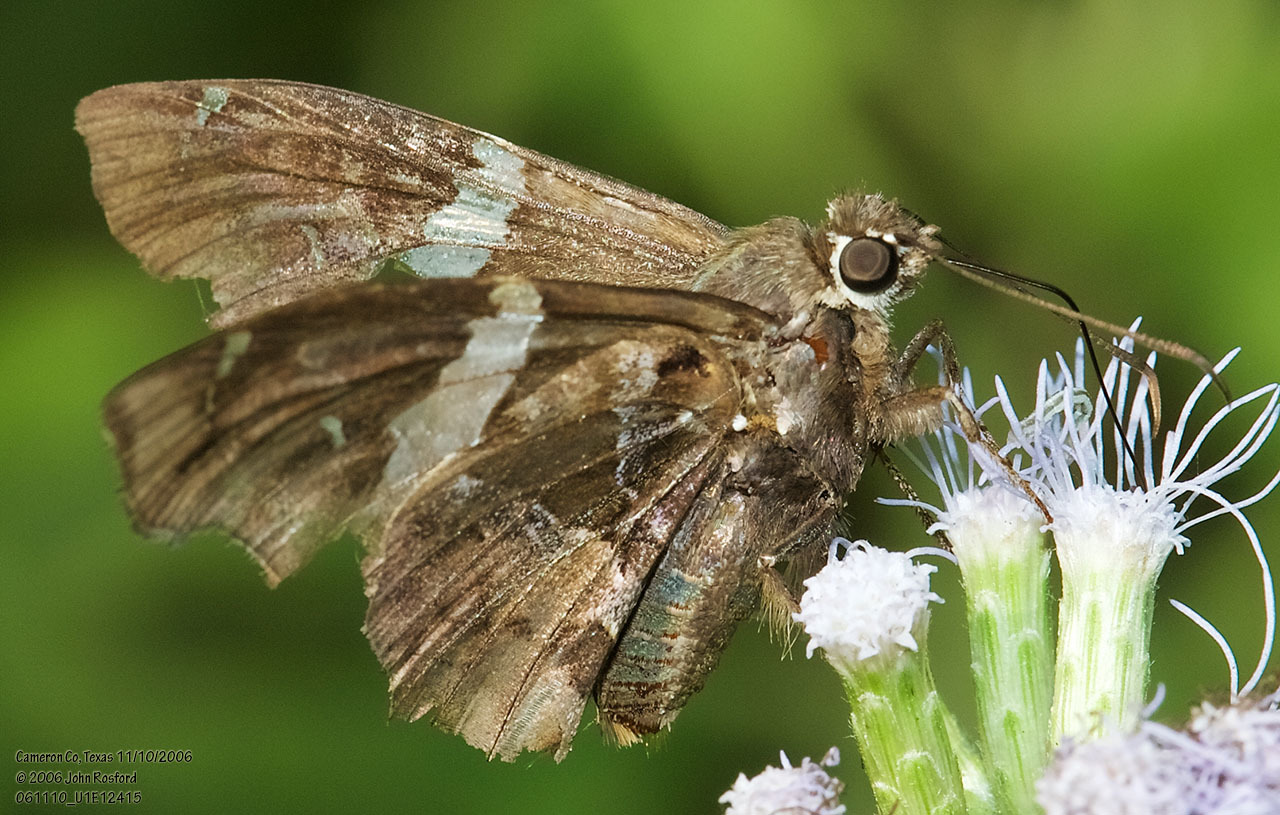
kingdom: Animalia
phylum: Arthropoda
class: Insecta
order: Lepidoptera
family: Hesperiidae
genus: Spathilepia
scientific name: Spathilepia clonius
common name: Falcate skipper
